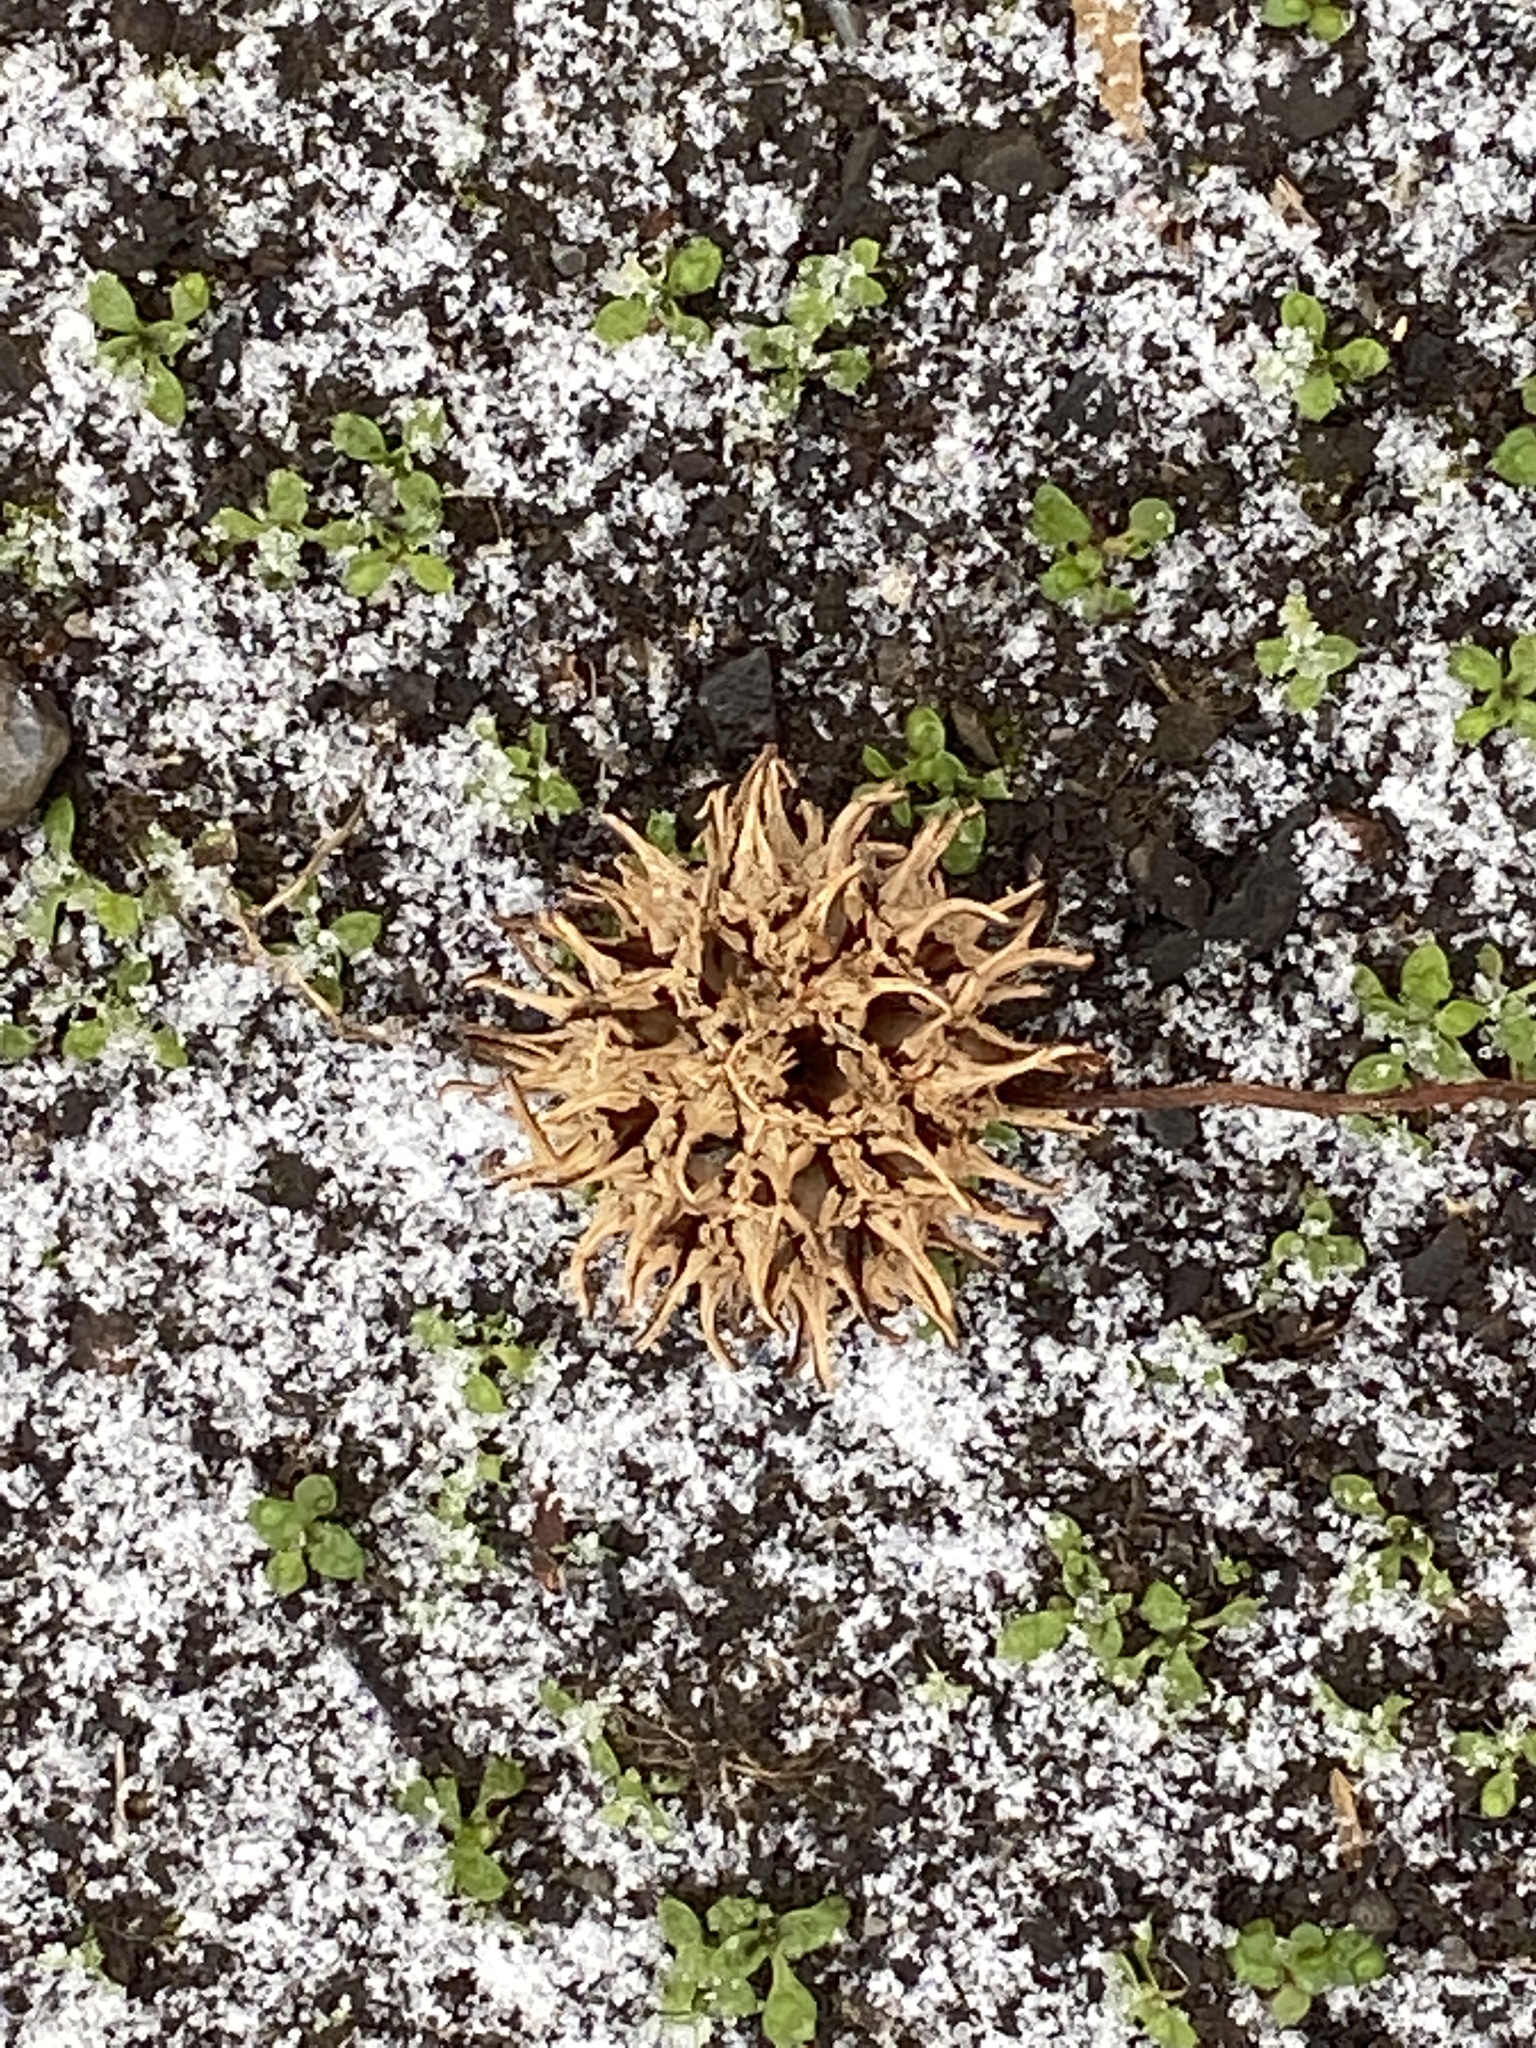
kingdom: Plantae
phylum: Tracheophyta
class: Magnoliopsida
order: Saxifragales
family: Altingiaceae
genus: Liquidambar
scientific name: Liquidambar styraciflua
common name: Sweet gum
